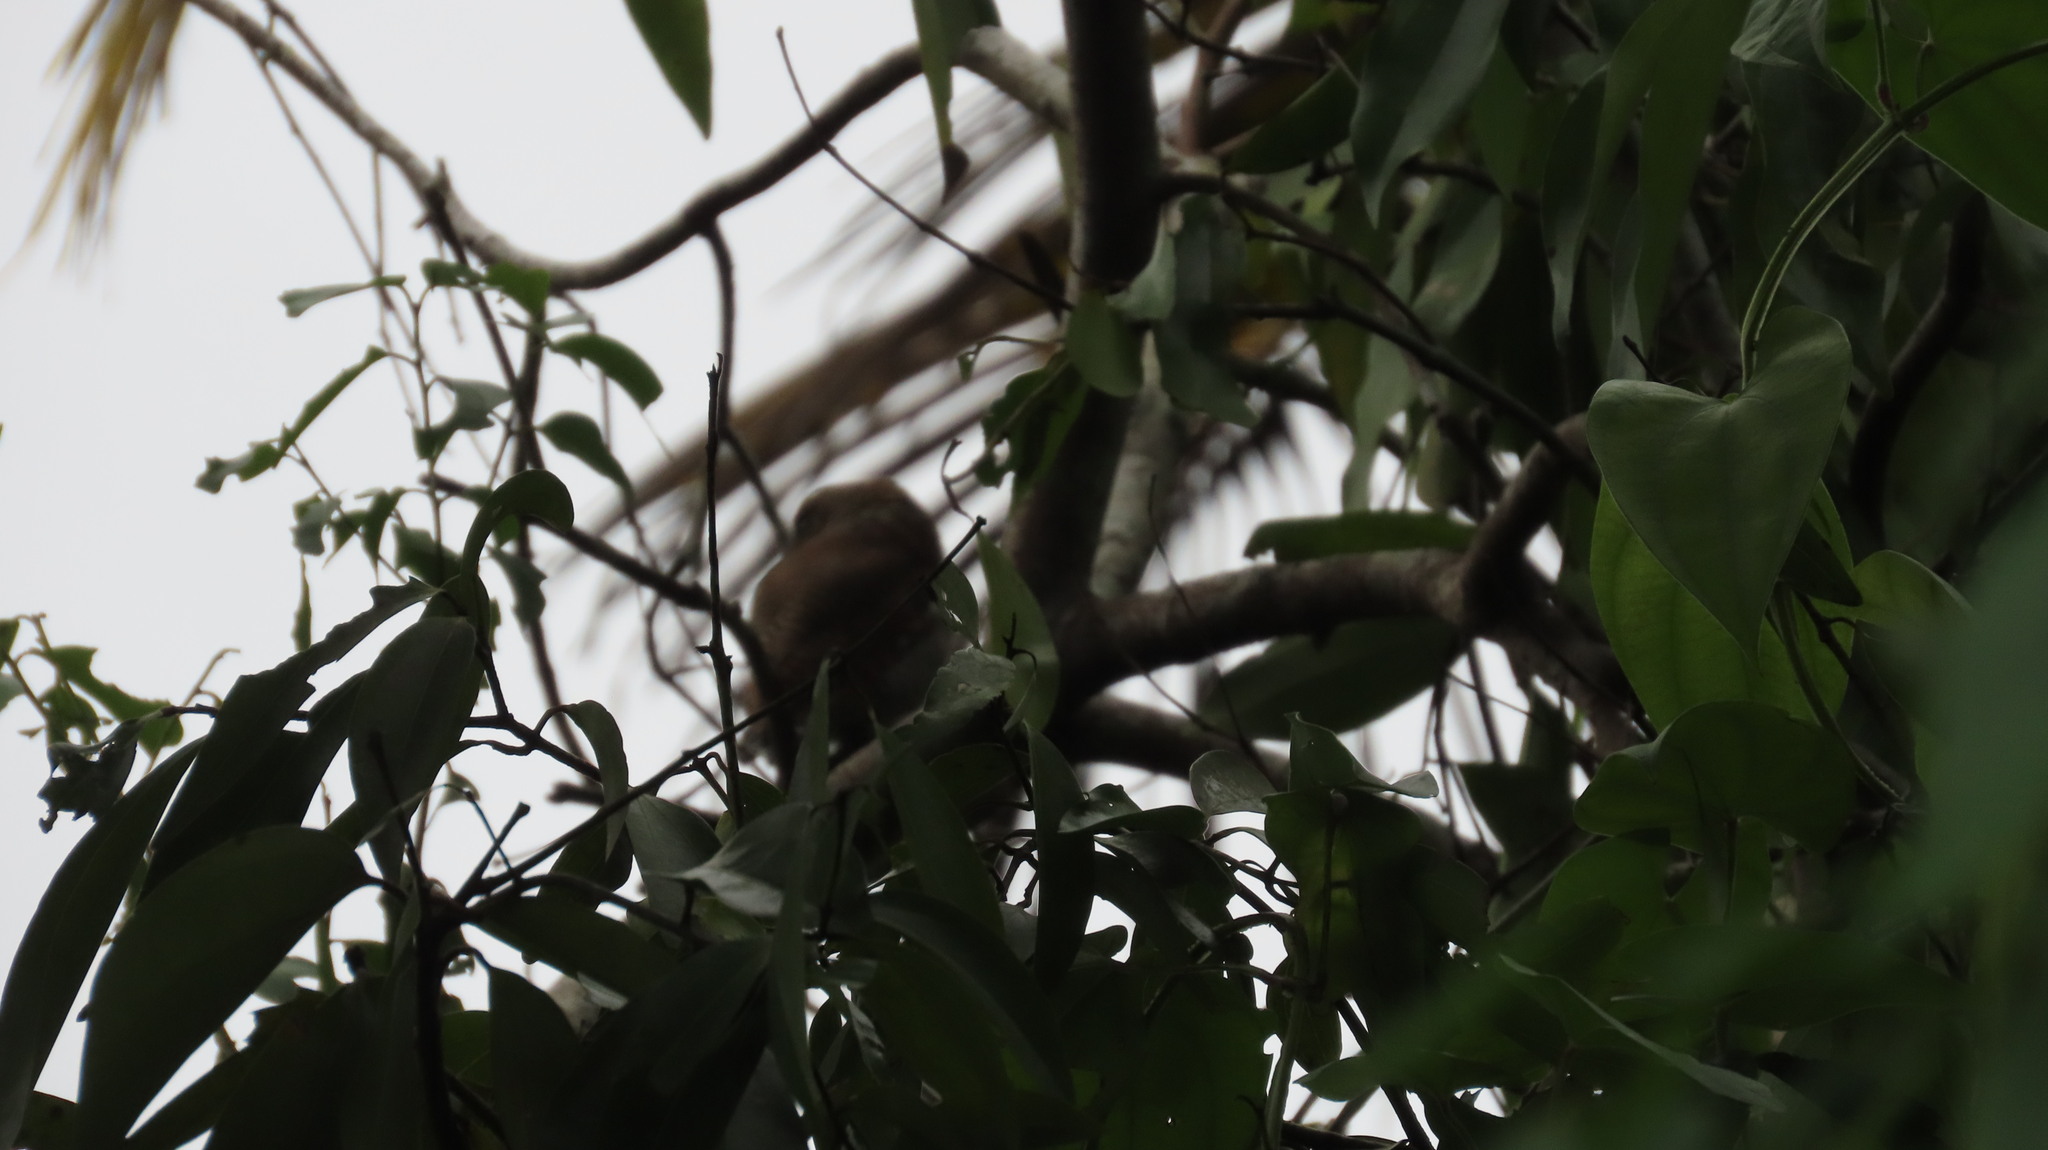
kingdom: Animalia
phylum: Chordata
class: Aves
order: Strigiformes
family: Strigidae
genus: Glaucidium
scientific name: Glaucidium radiatum
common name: Jungle owlet
